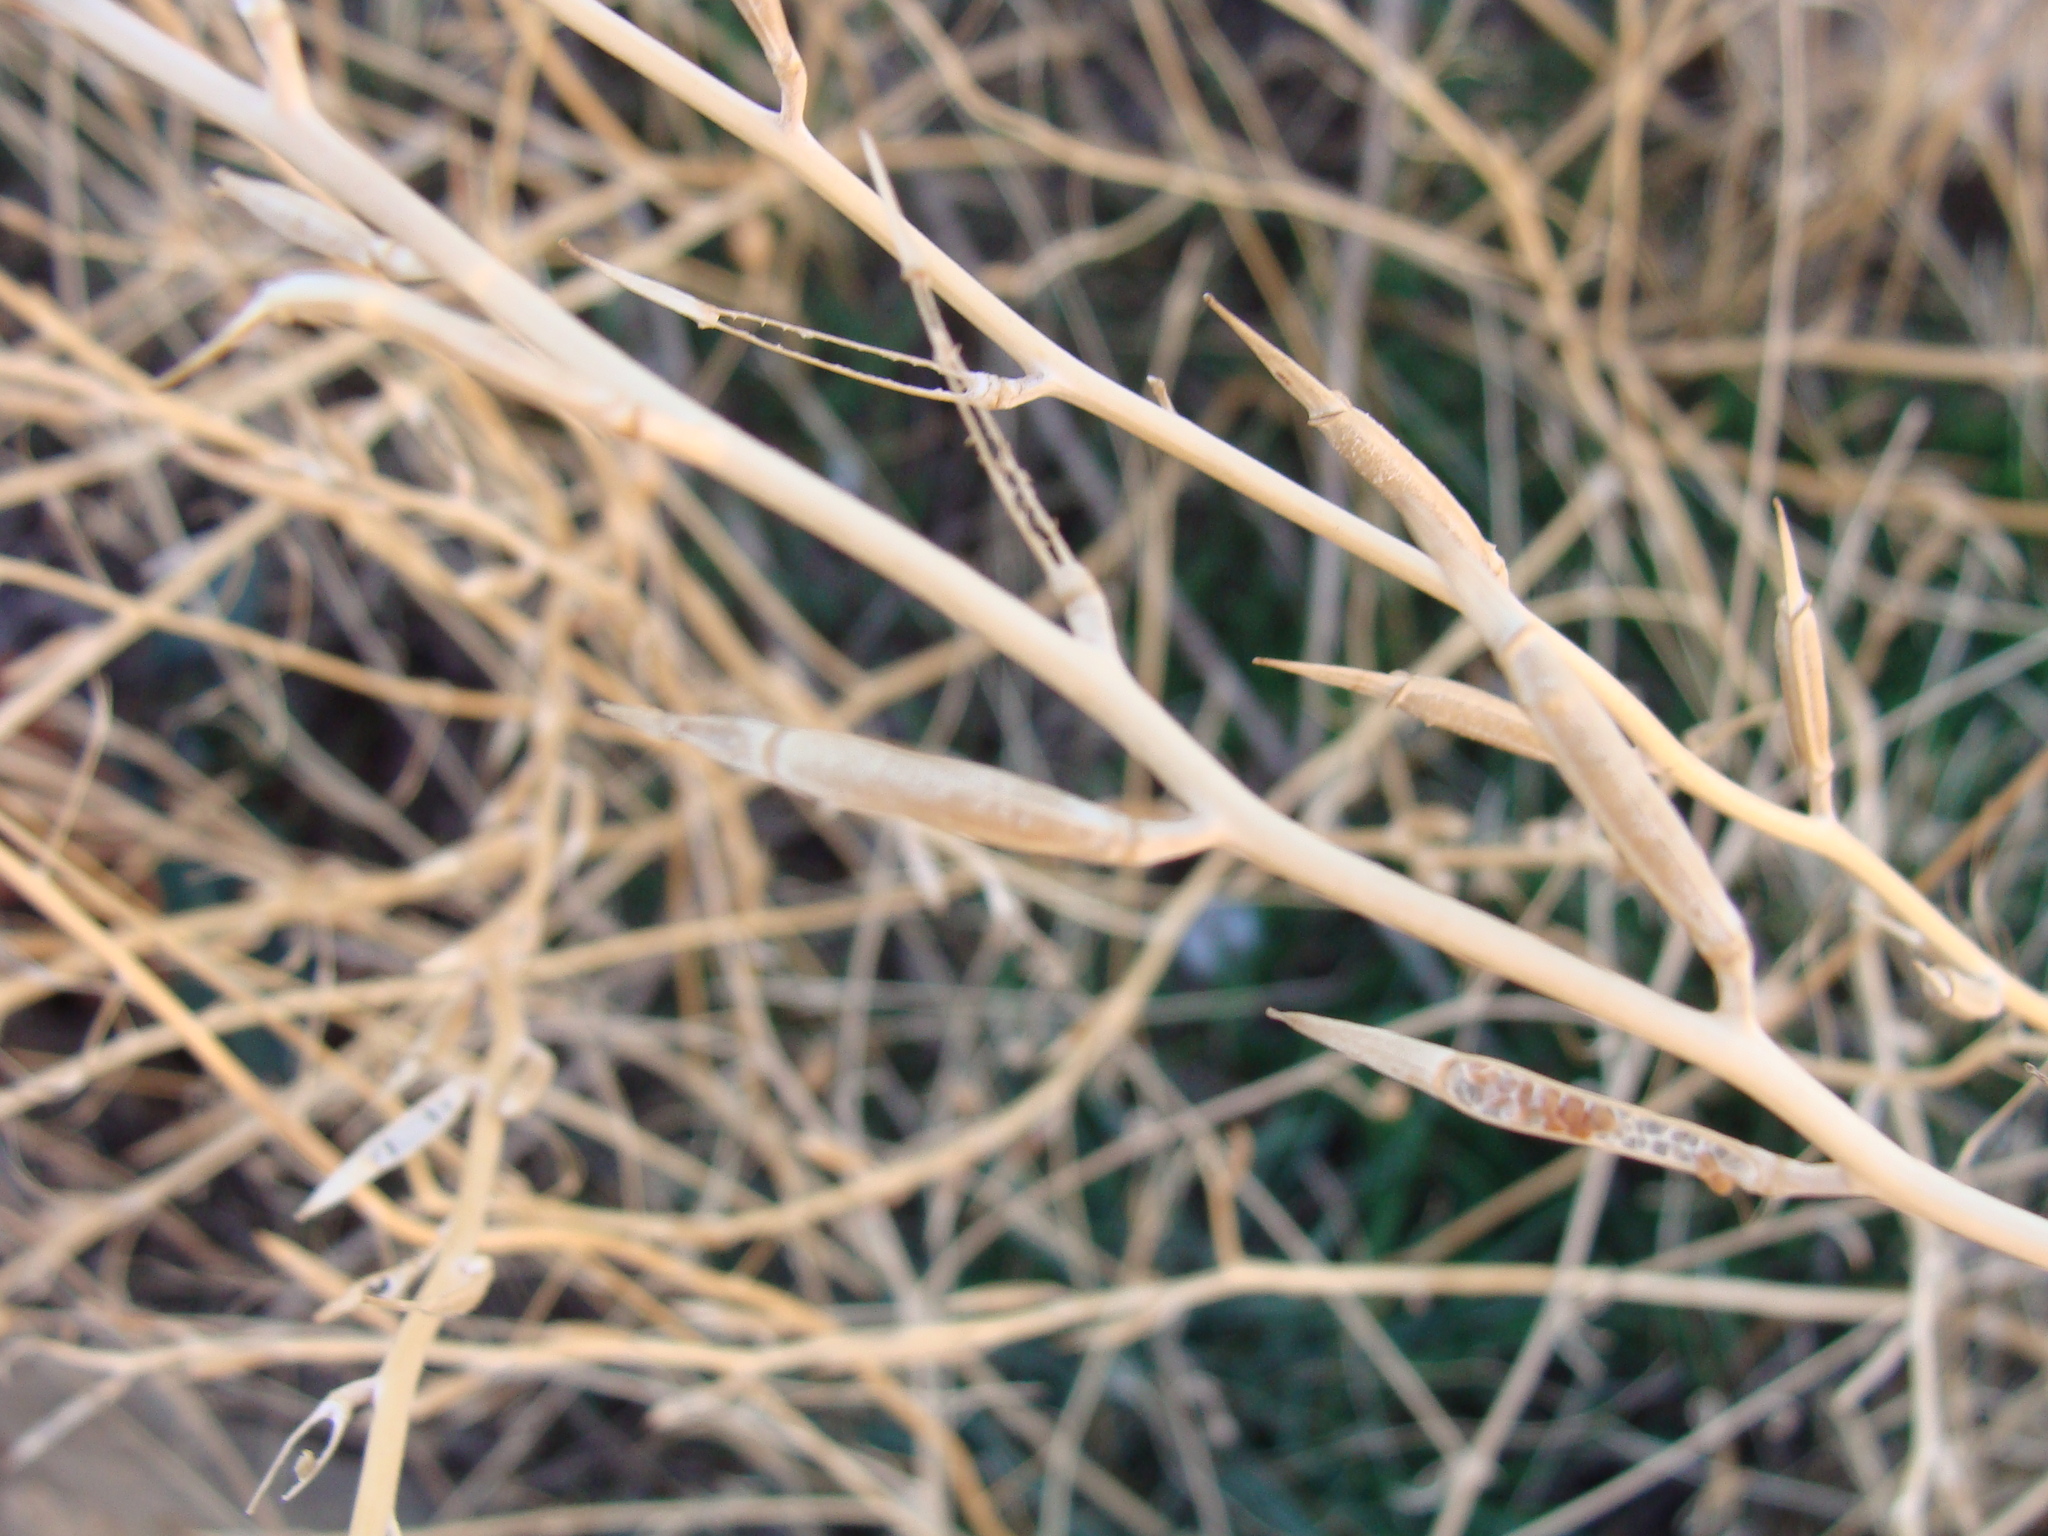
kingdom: Plantae
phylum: Tracheophyta
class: Magnoliopsida
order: Brassicales
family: Brassicaceae
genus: Eruca
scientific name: Eruca vesicaria
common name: Garden rocket
